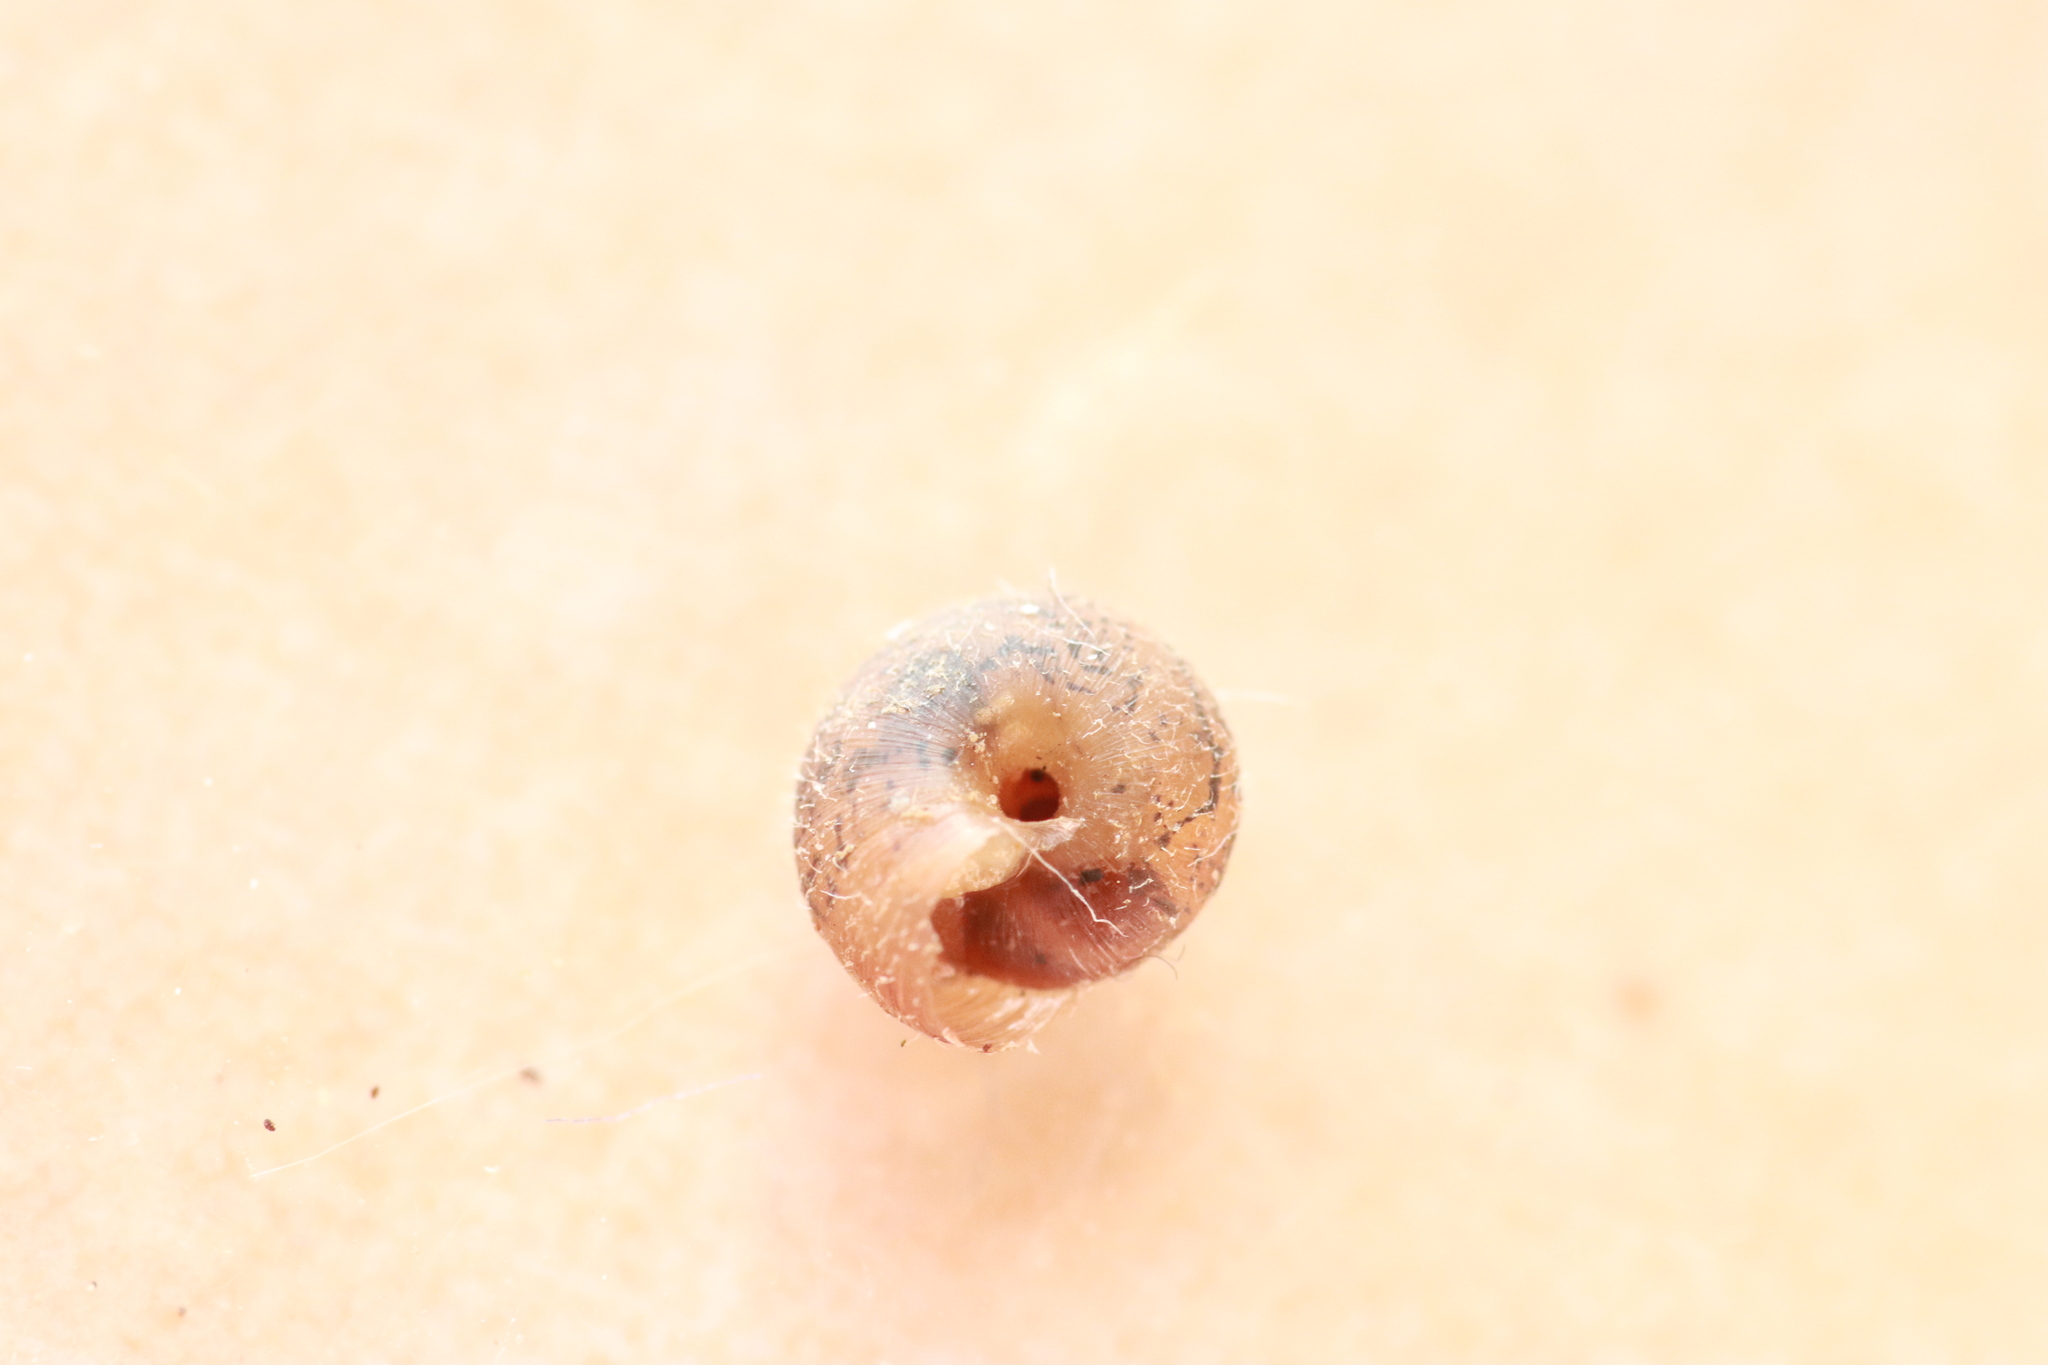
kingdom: Animalia
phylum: Mollusca
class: Gastropoda
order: Stylommatophora
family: Geomitridae
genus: Xerotricha
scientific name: Xerotricha conspurcata
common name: Snail
